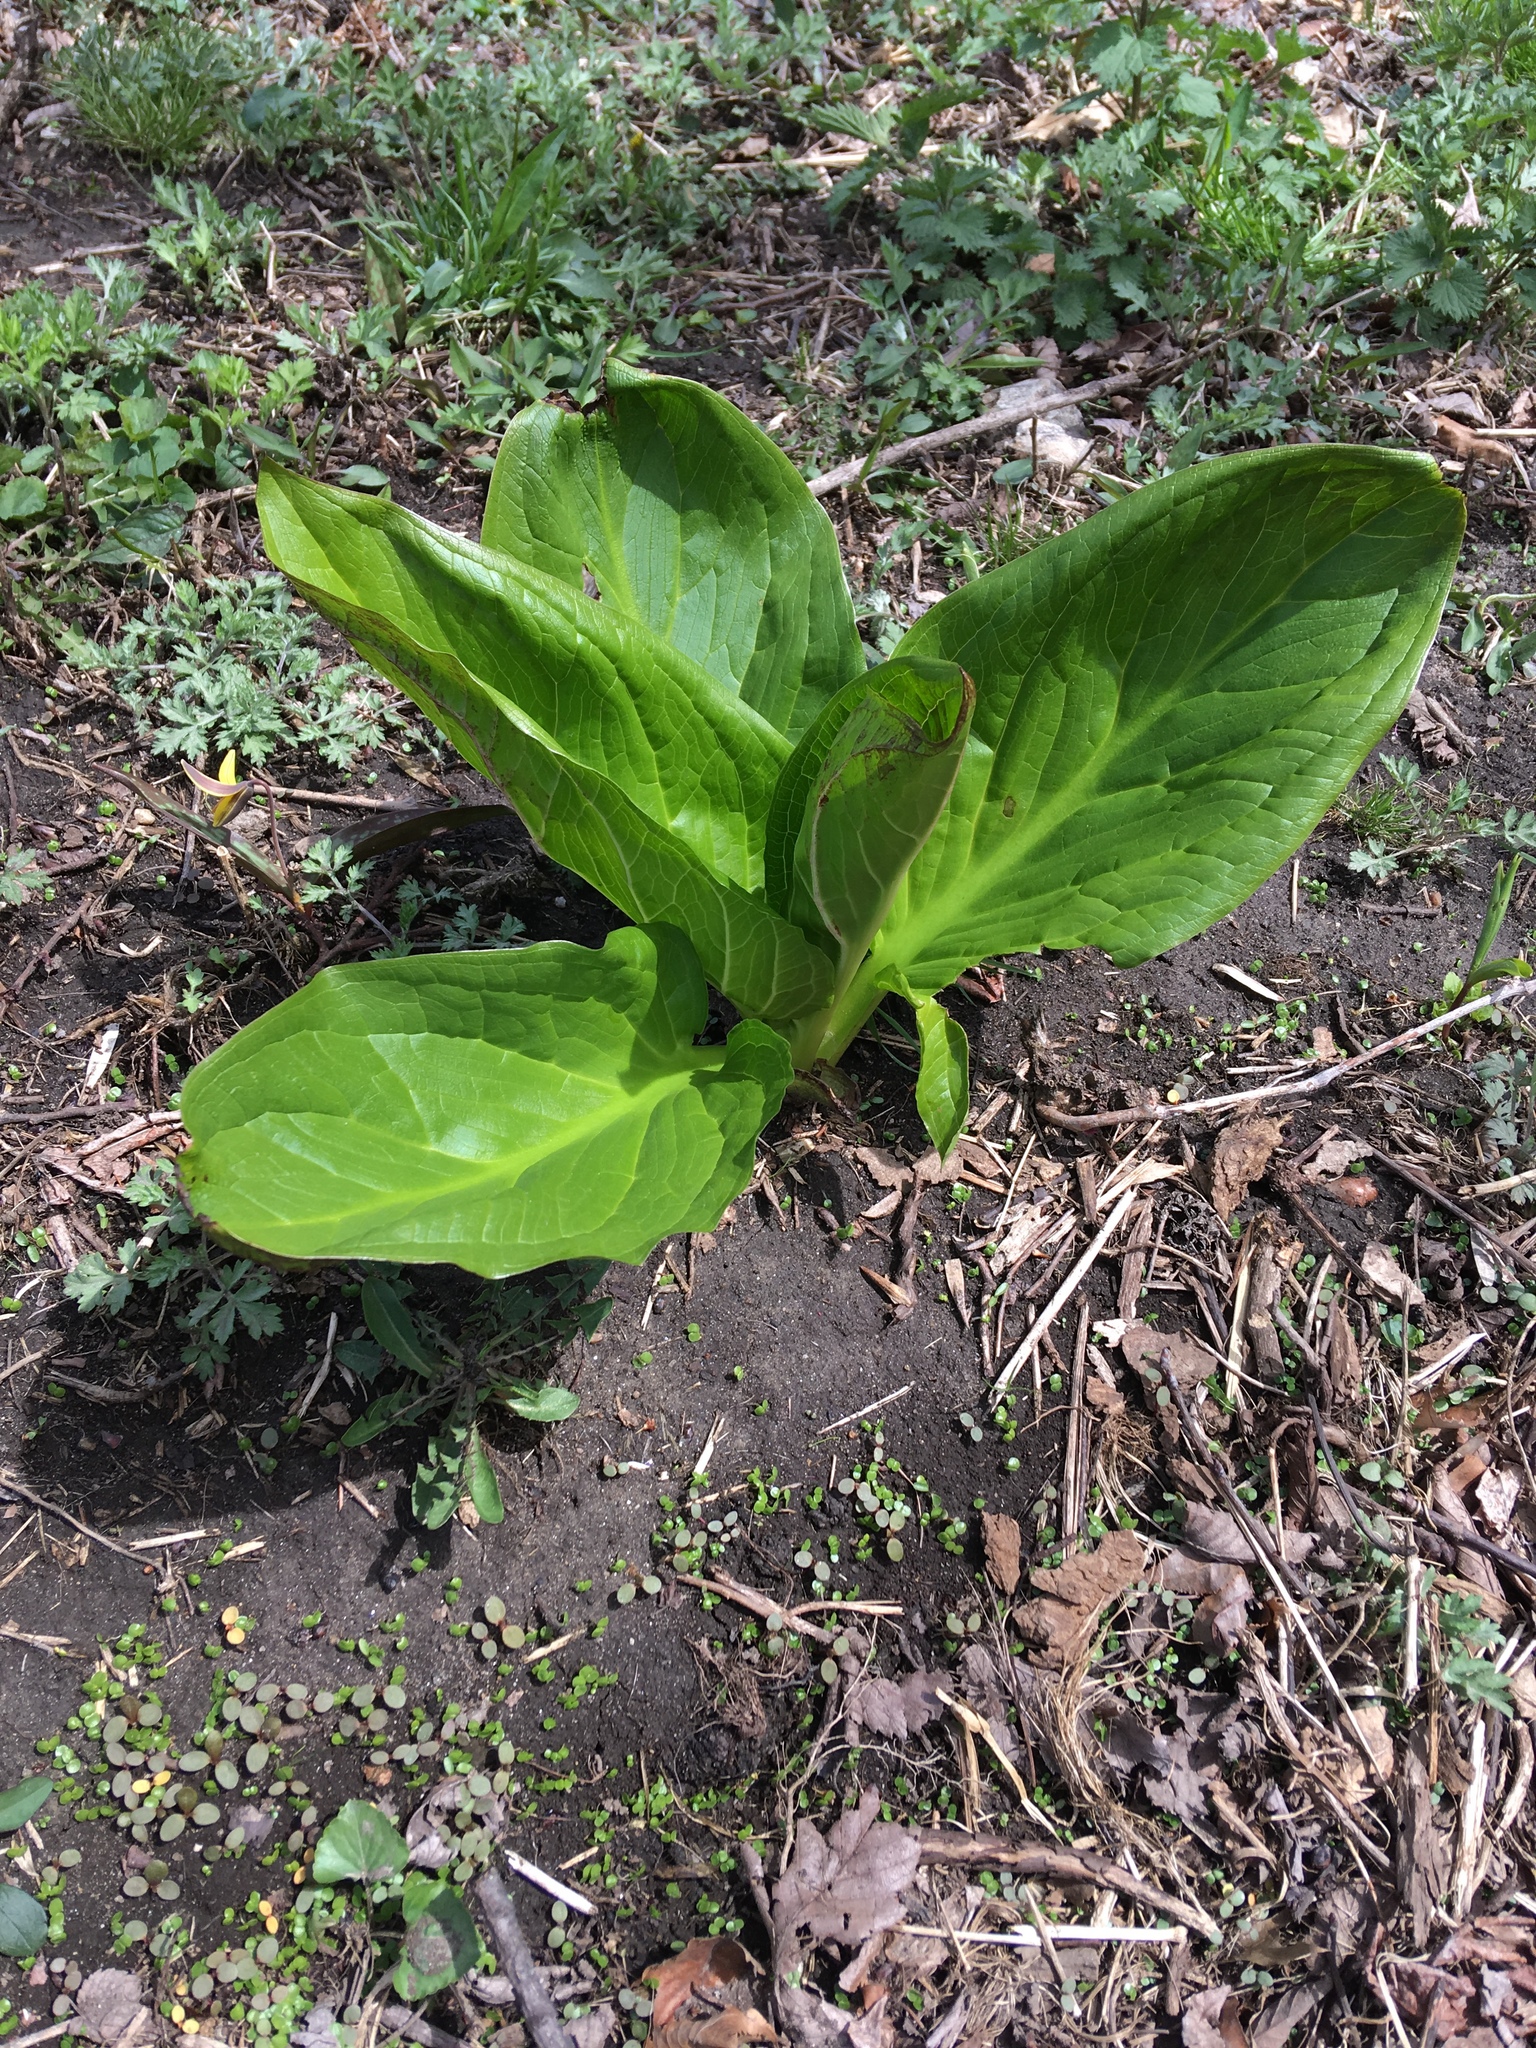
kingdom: Plantae
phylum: Tracheophyta
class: Liliopsida
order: Alismatales
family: Araceae
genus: Symplocarpus
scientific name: Symplocarpus foetidus
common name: Eastern skunk cabbage
